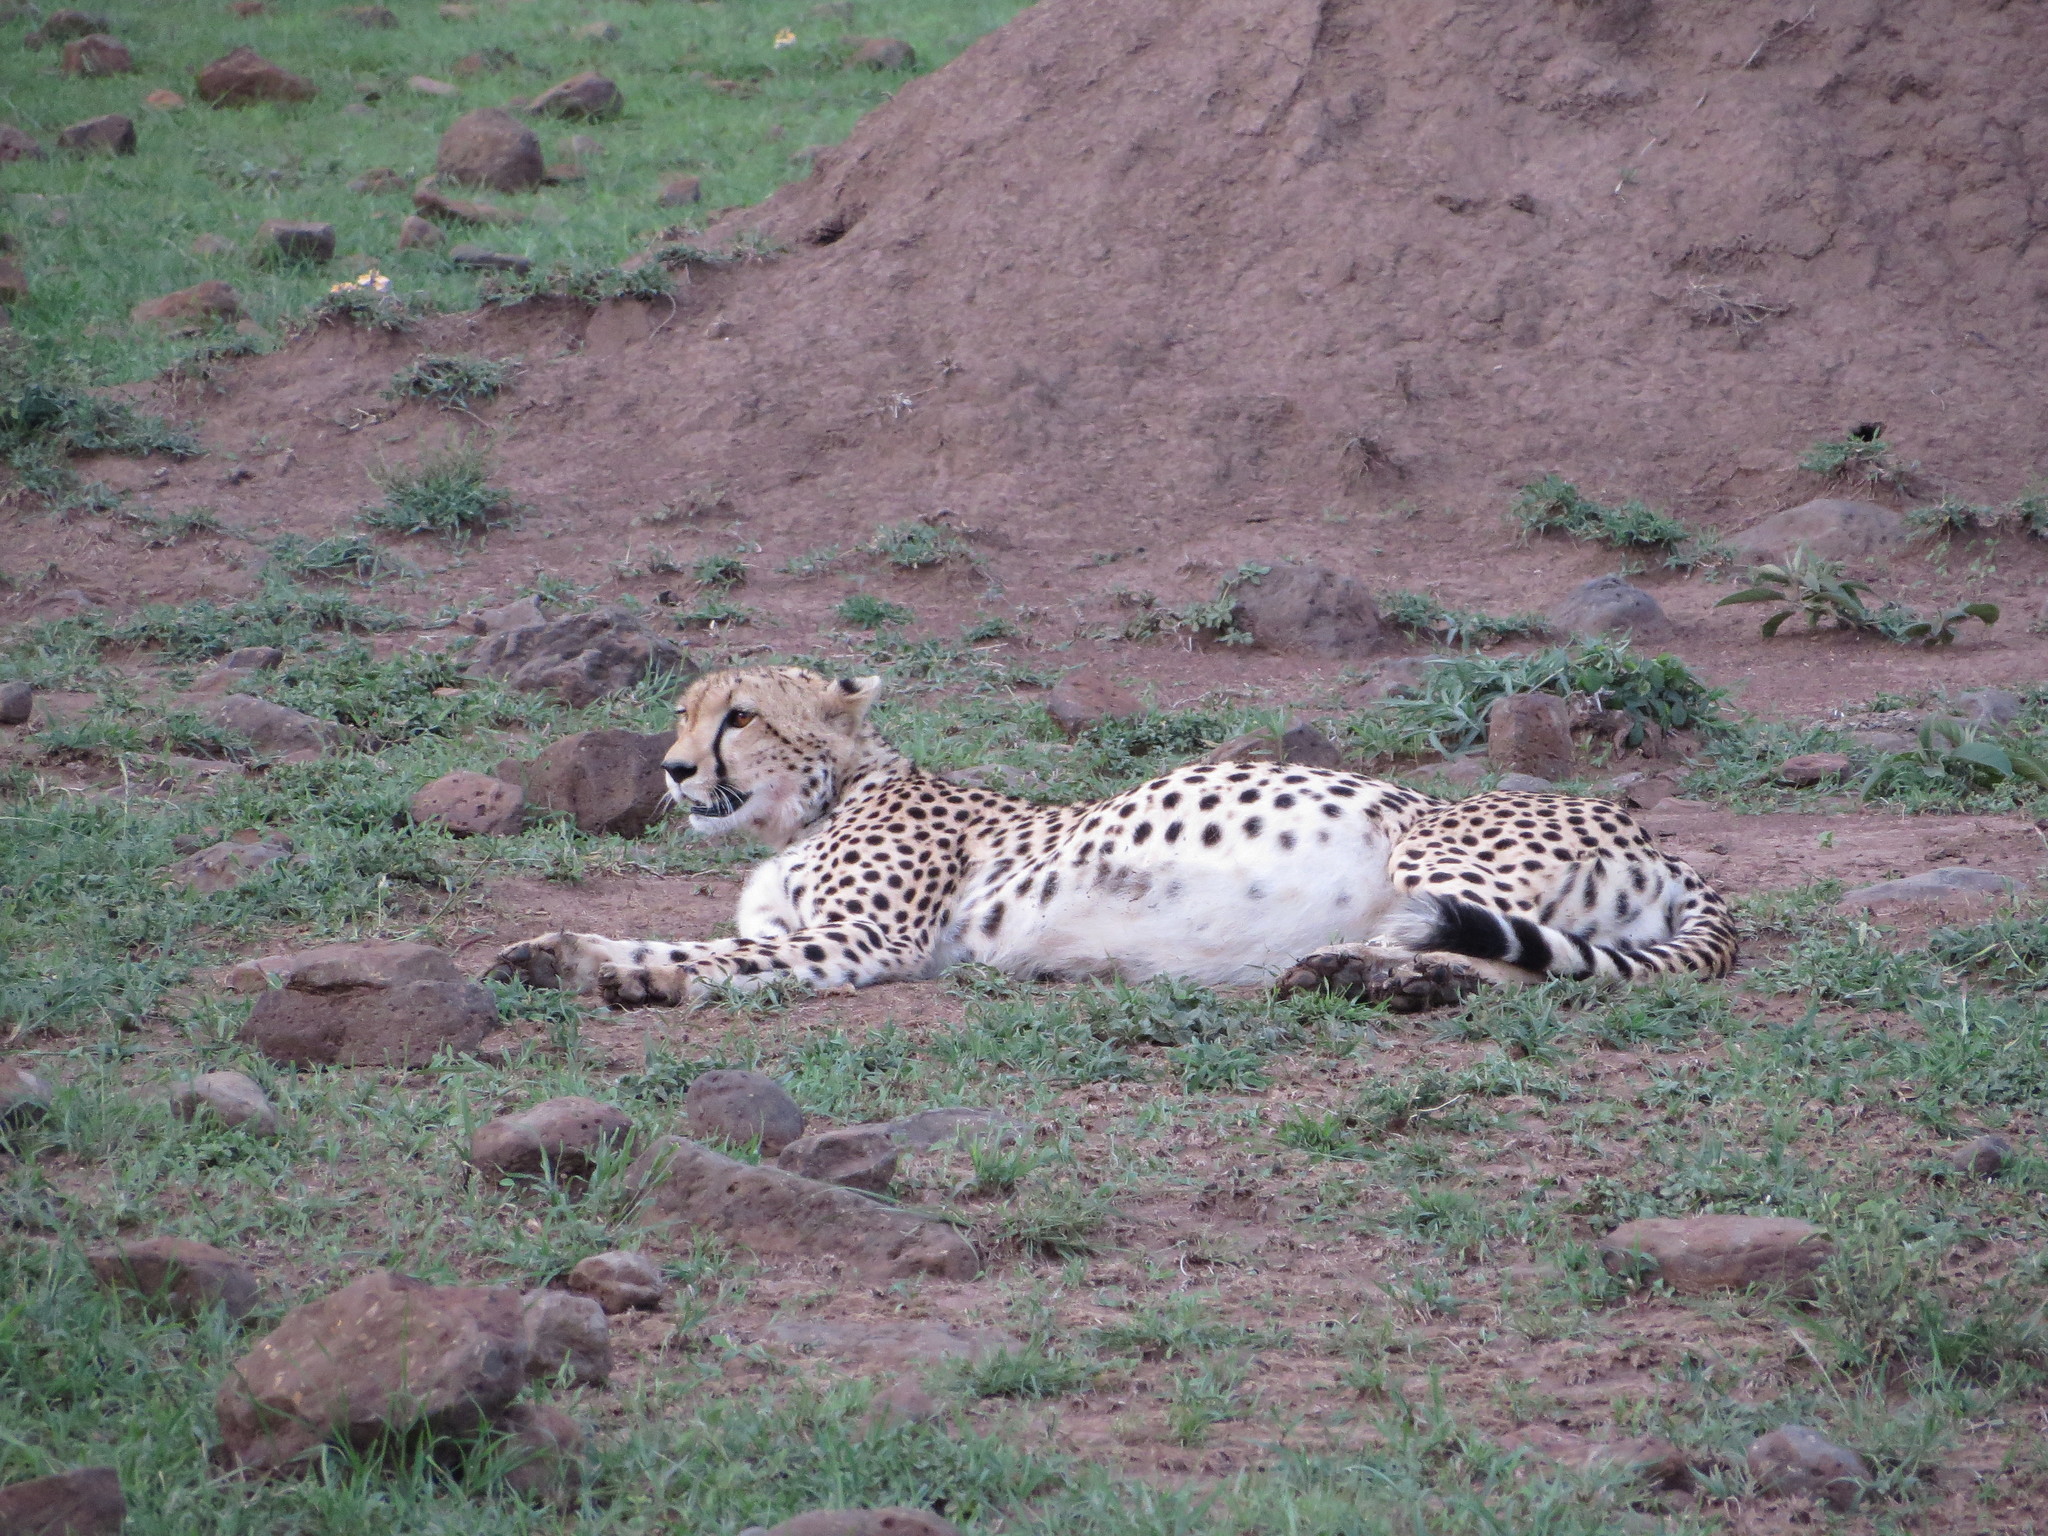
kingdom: Animalia
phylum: Chordata
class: Mammalia
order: Carnivora
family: Felidae
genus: Acinonyx
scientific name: Acinonyx jubatus
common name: Cheetah
